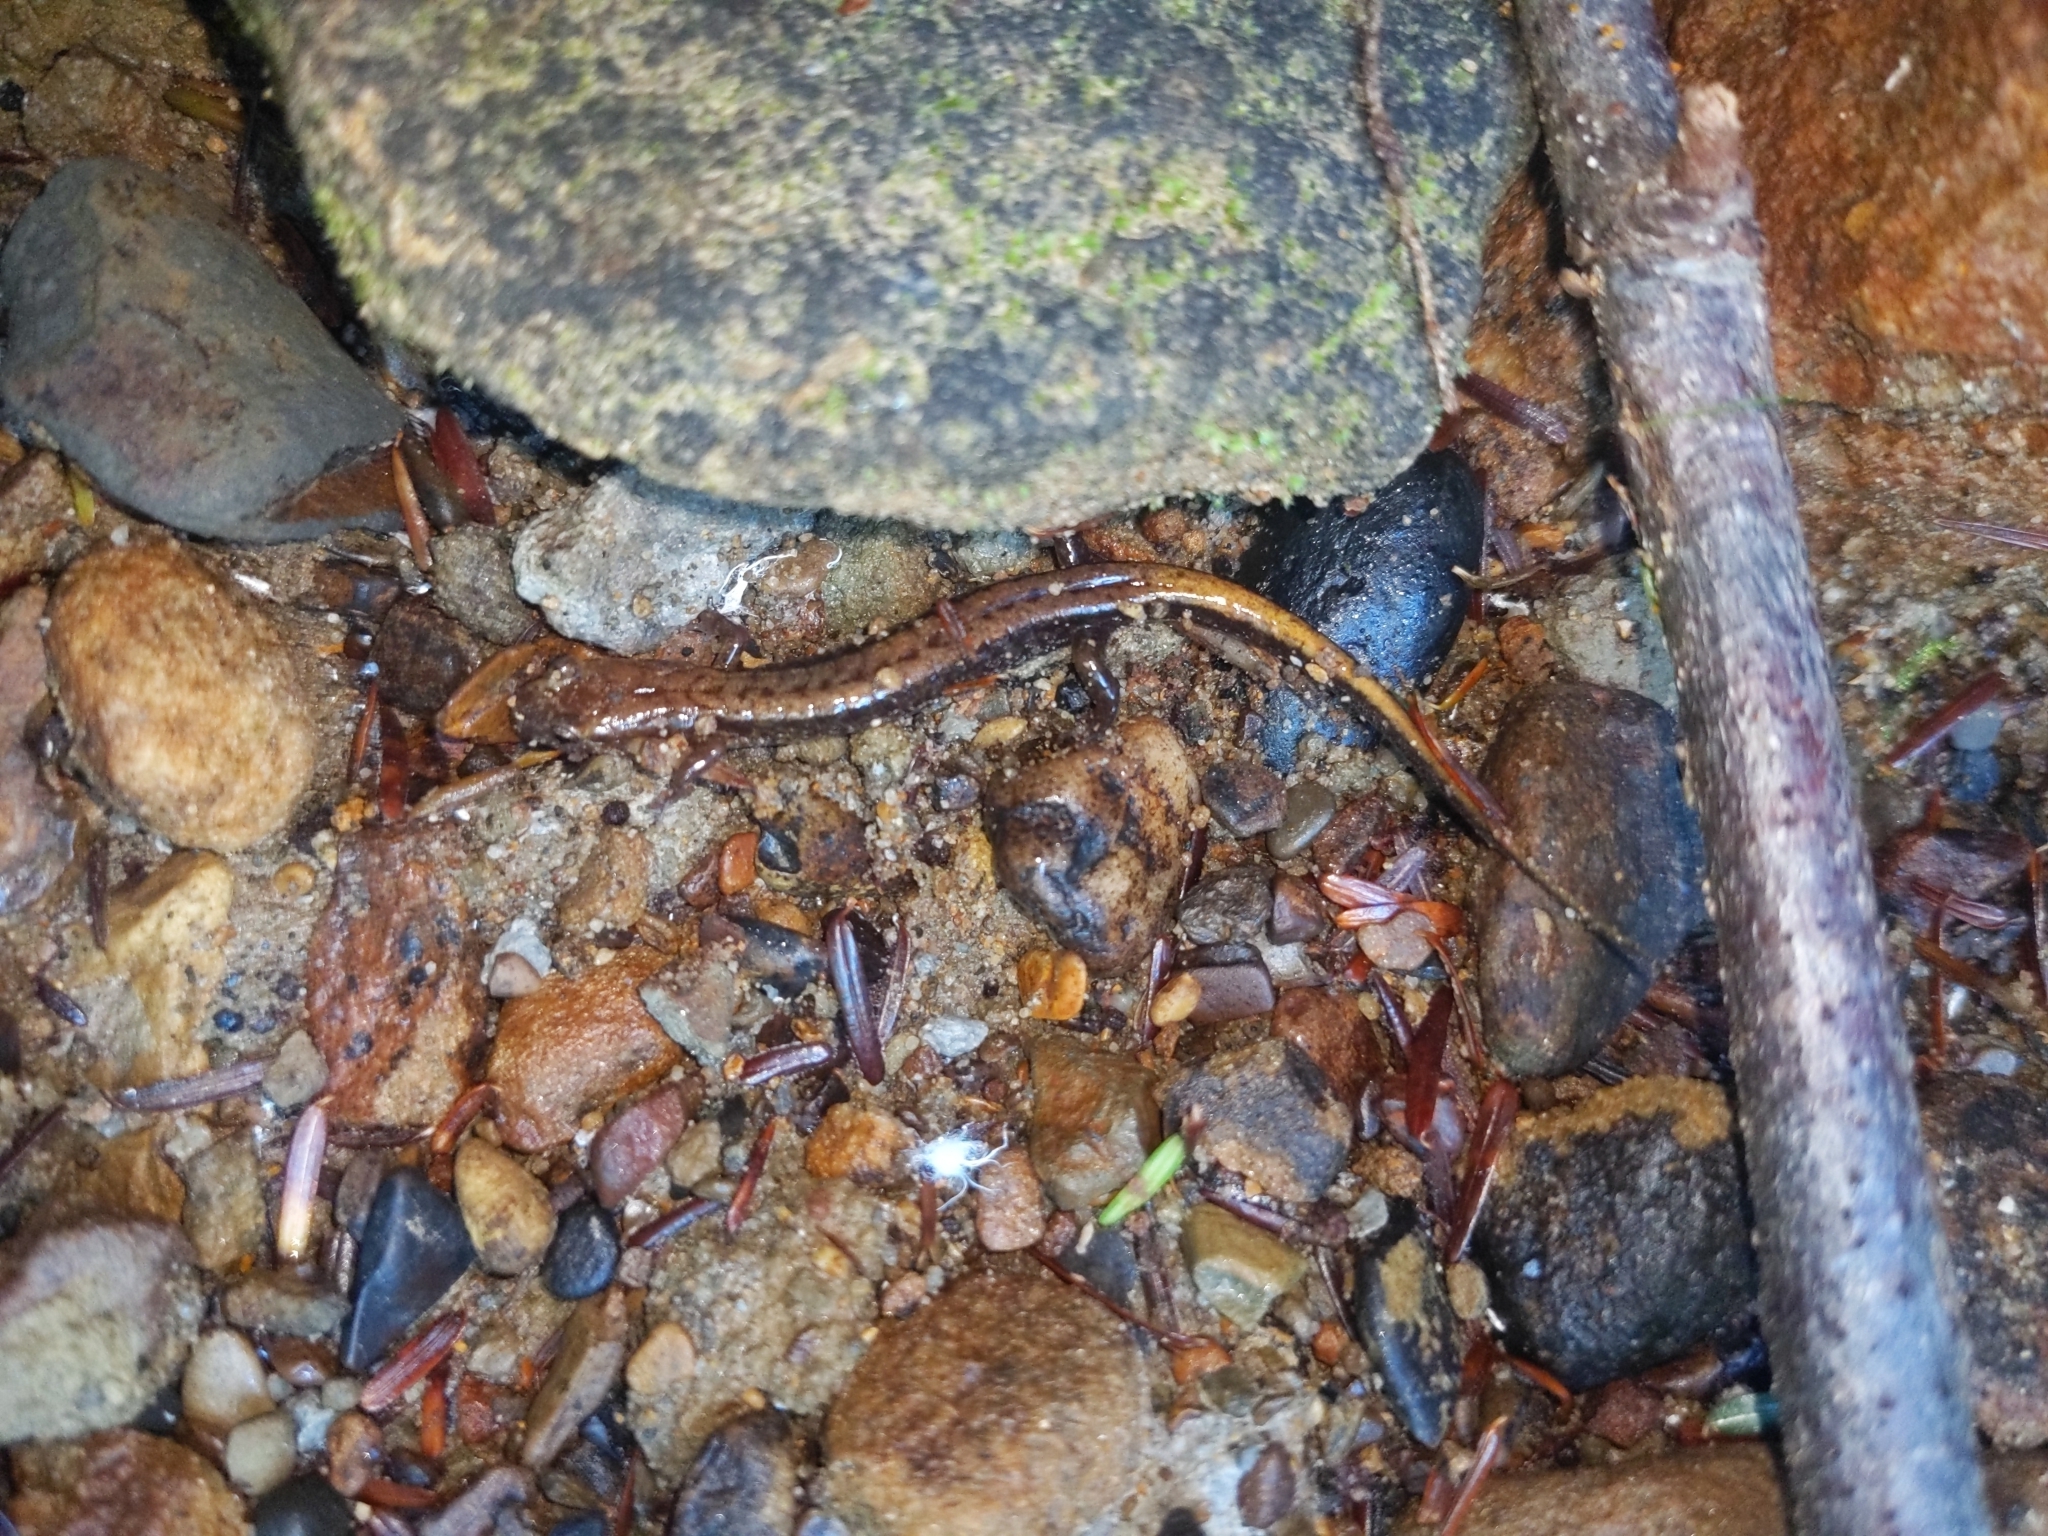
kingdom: Animalia
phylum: Chordata
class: Amphibia
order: Caudata
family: Plethodontidae
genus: Desmognathus
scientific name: Desmognathus ochrophaeus
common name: Allegheny mountain dusky salamander
